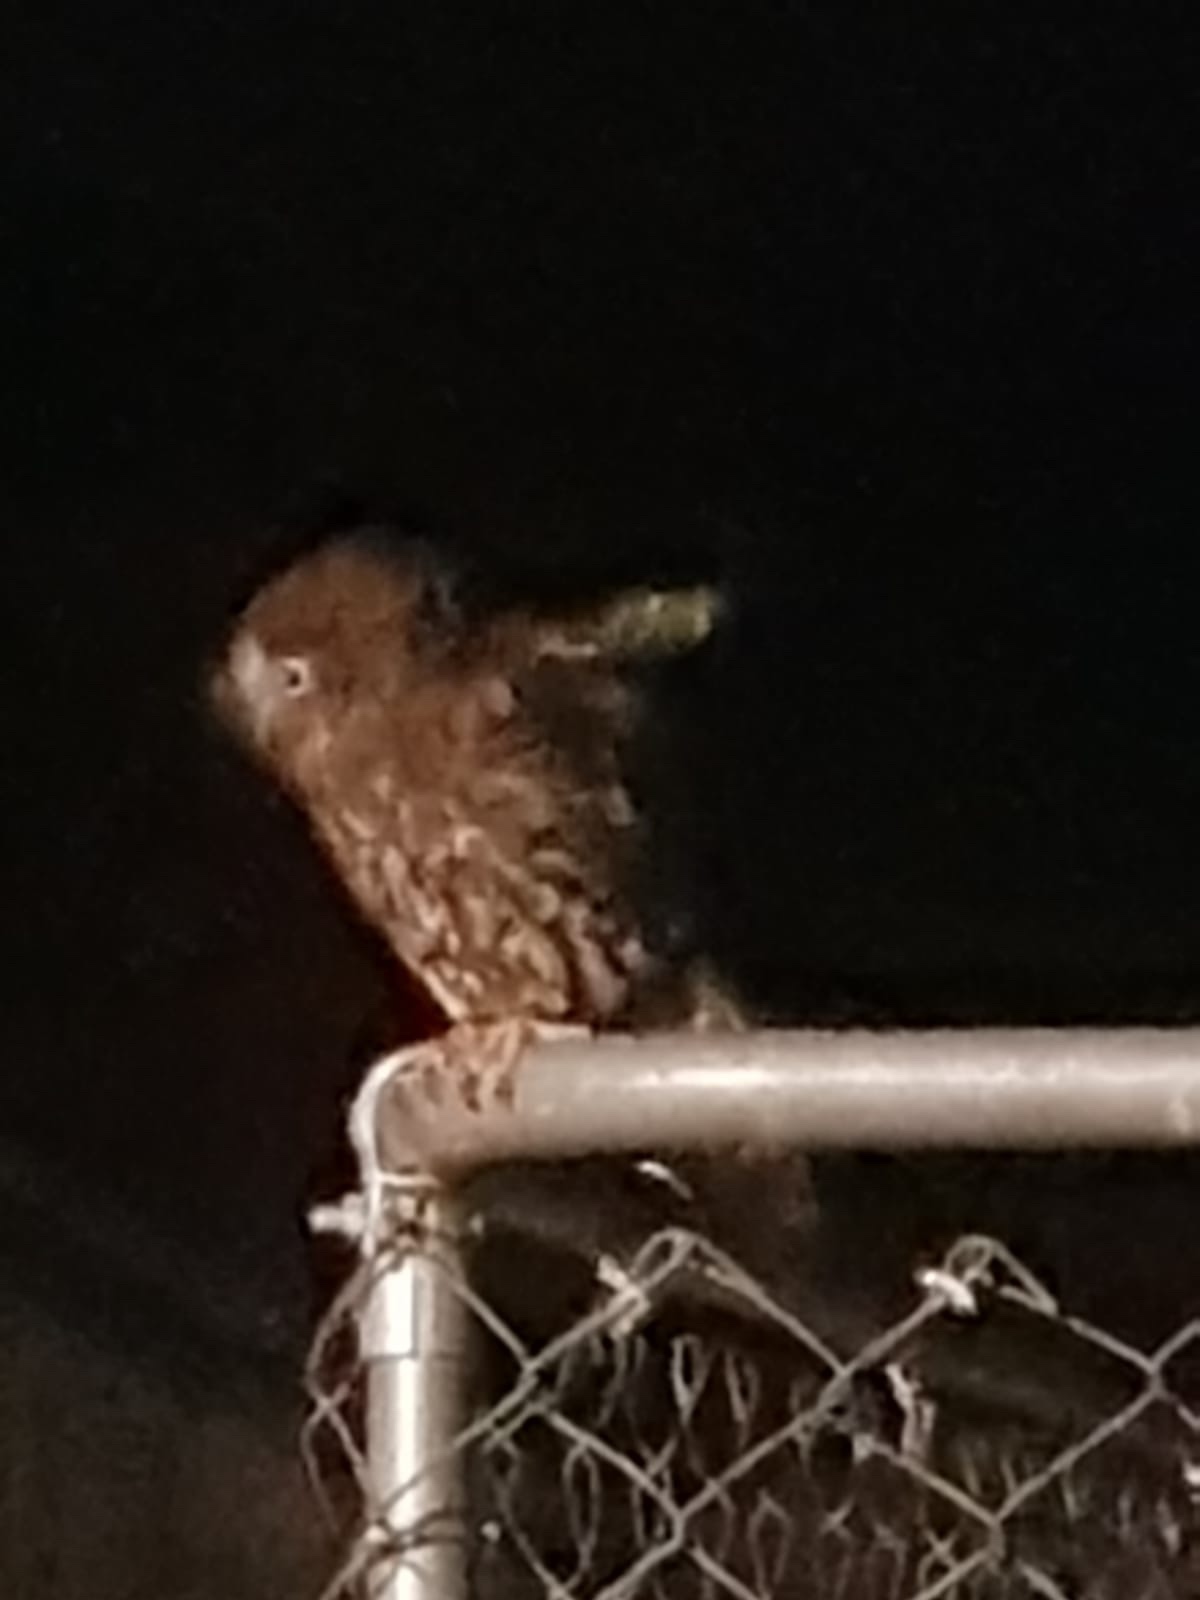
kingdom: Animalia
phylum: Chordata
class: Aves
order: Strigiformes
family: Strigidae
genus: Ninox
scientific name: Ninox novaeseelandiae
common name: Morepork
